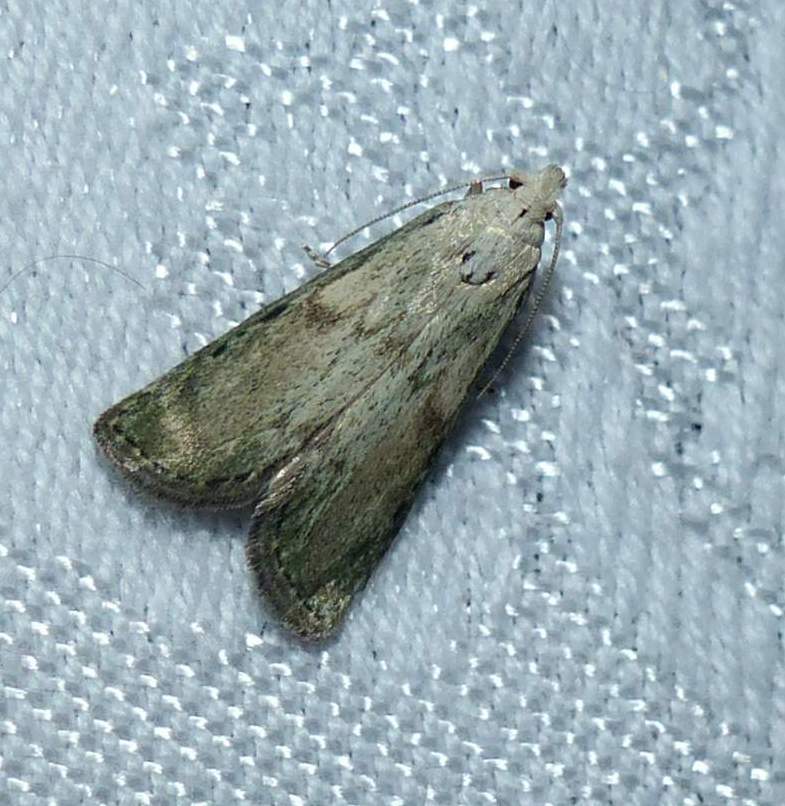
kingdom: Animalia
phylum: Arthropoda
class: Insecta
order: Lepidoptera
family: Pyralidae
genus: Aphomia
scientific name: Aphomia sociella
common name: Bee moth
